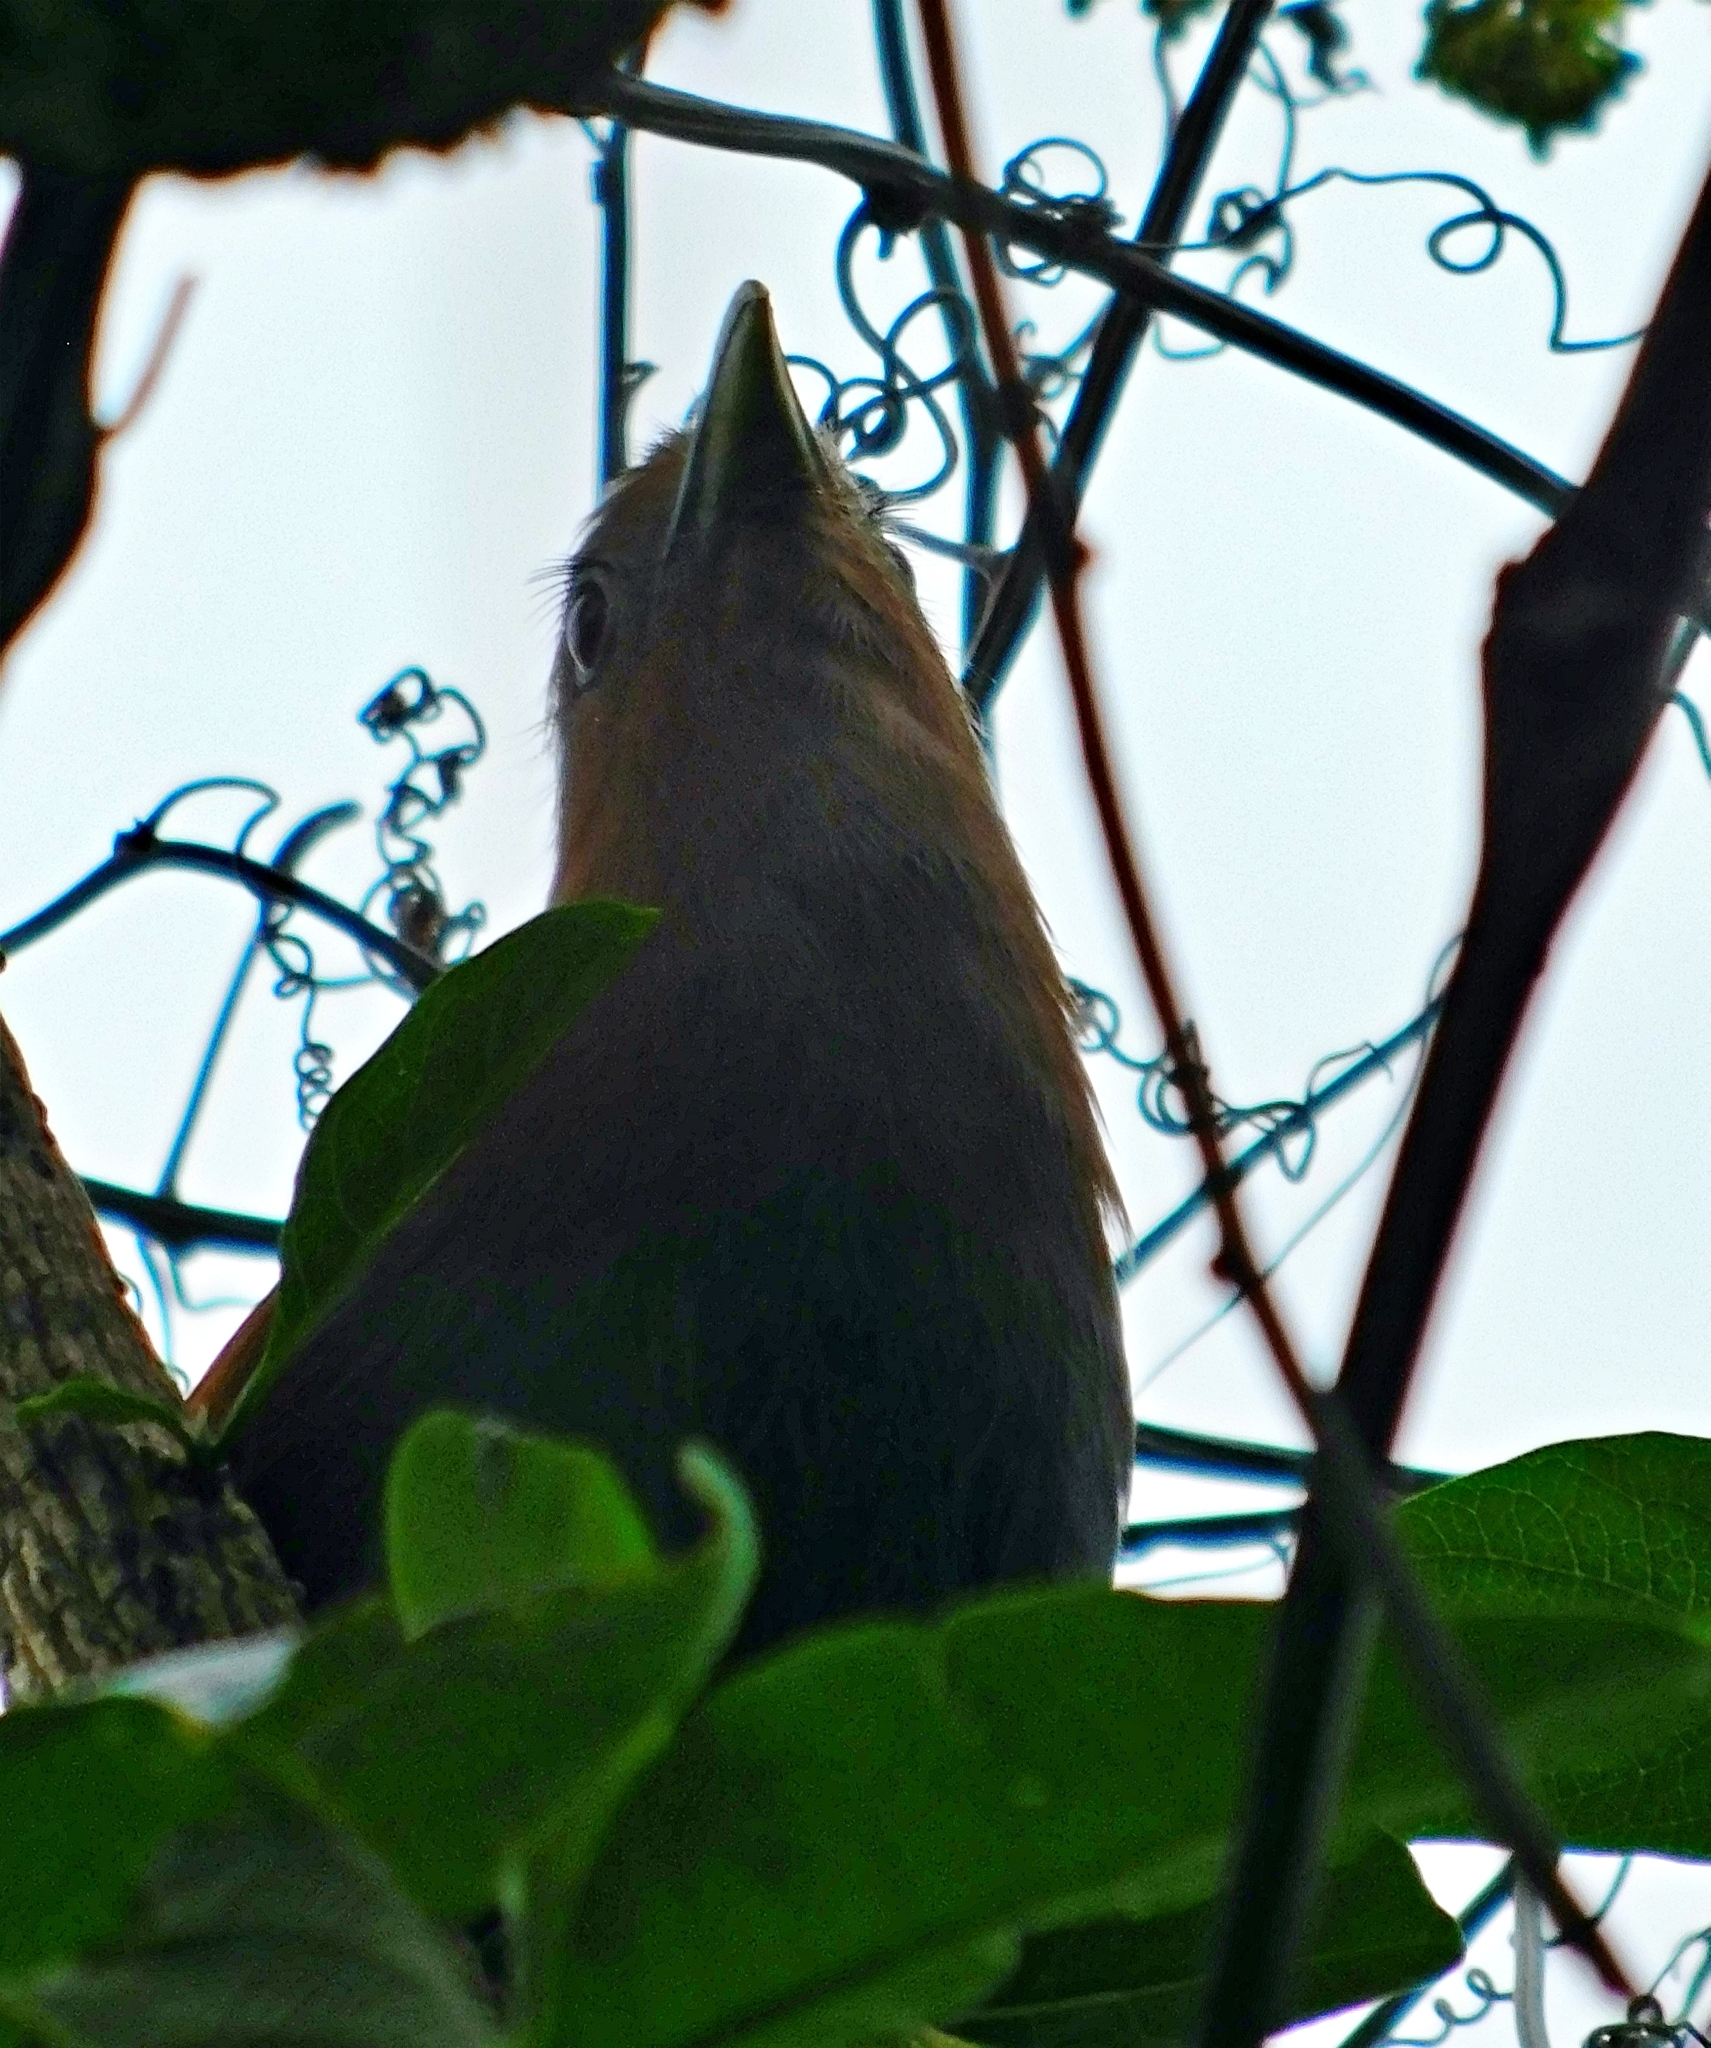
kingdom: Animalia
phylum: Chordata
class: Aves
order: Cuculiformes
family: Cuculidae
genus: Piaya
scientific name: Piaya cayana
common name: Squirrel cuckoo
